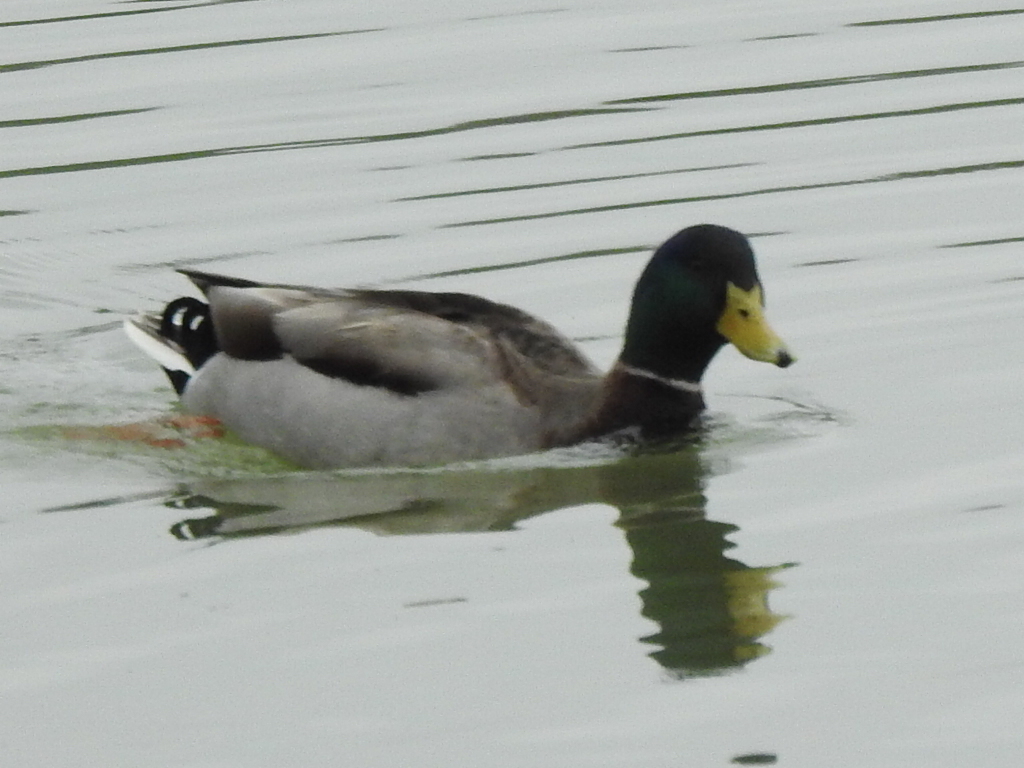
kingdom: Animalia
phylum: Chordata
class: Aves
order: Anseriformes
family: Anatidae
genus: Anas
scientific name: Anas platyrhynchos
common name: Mallard
